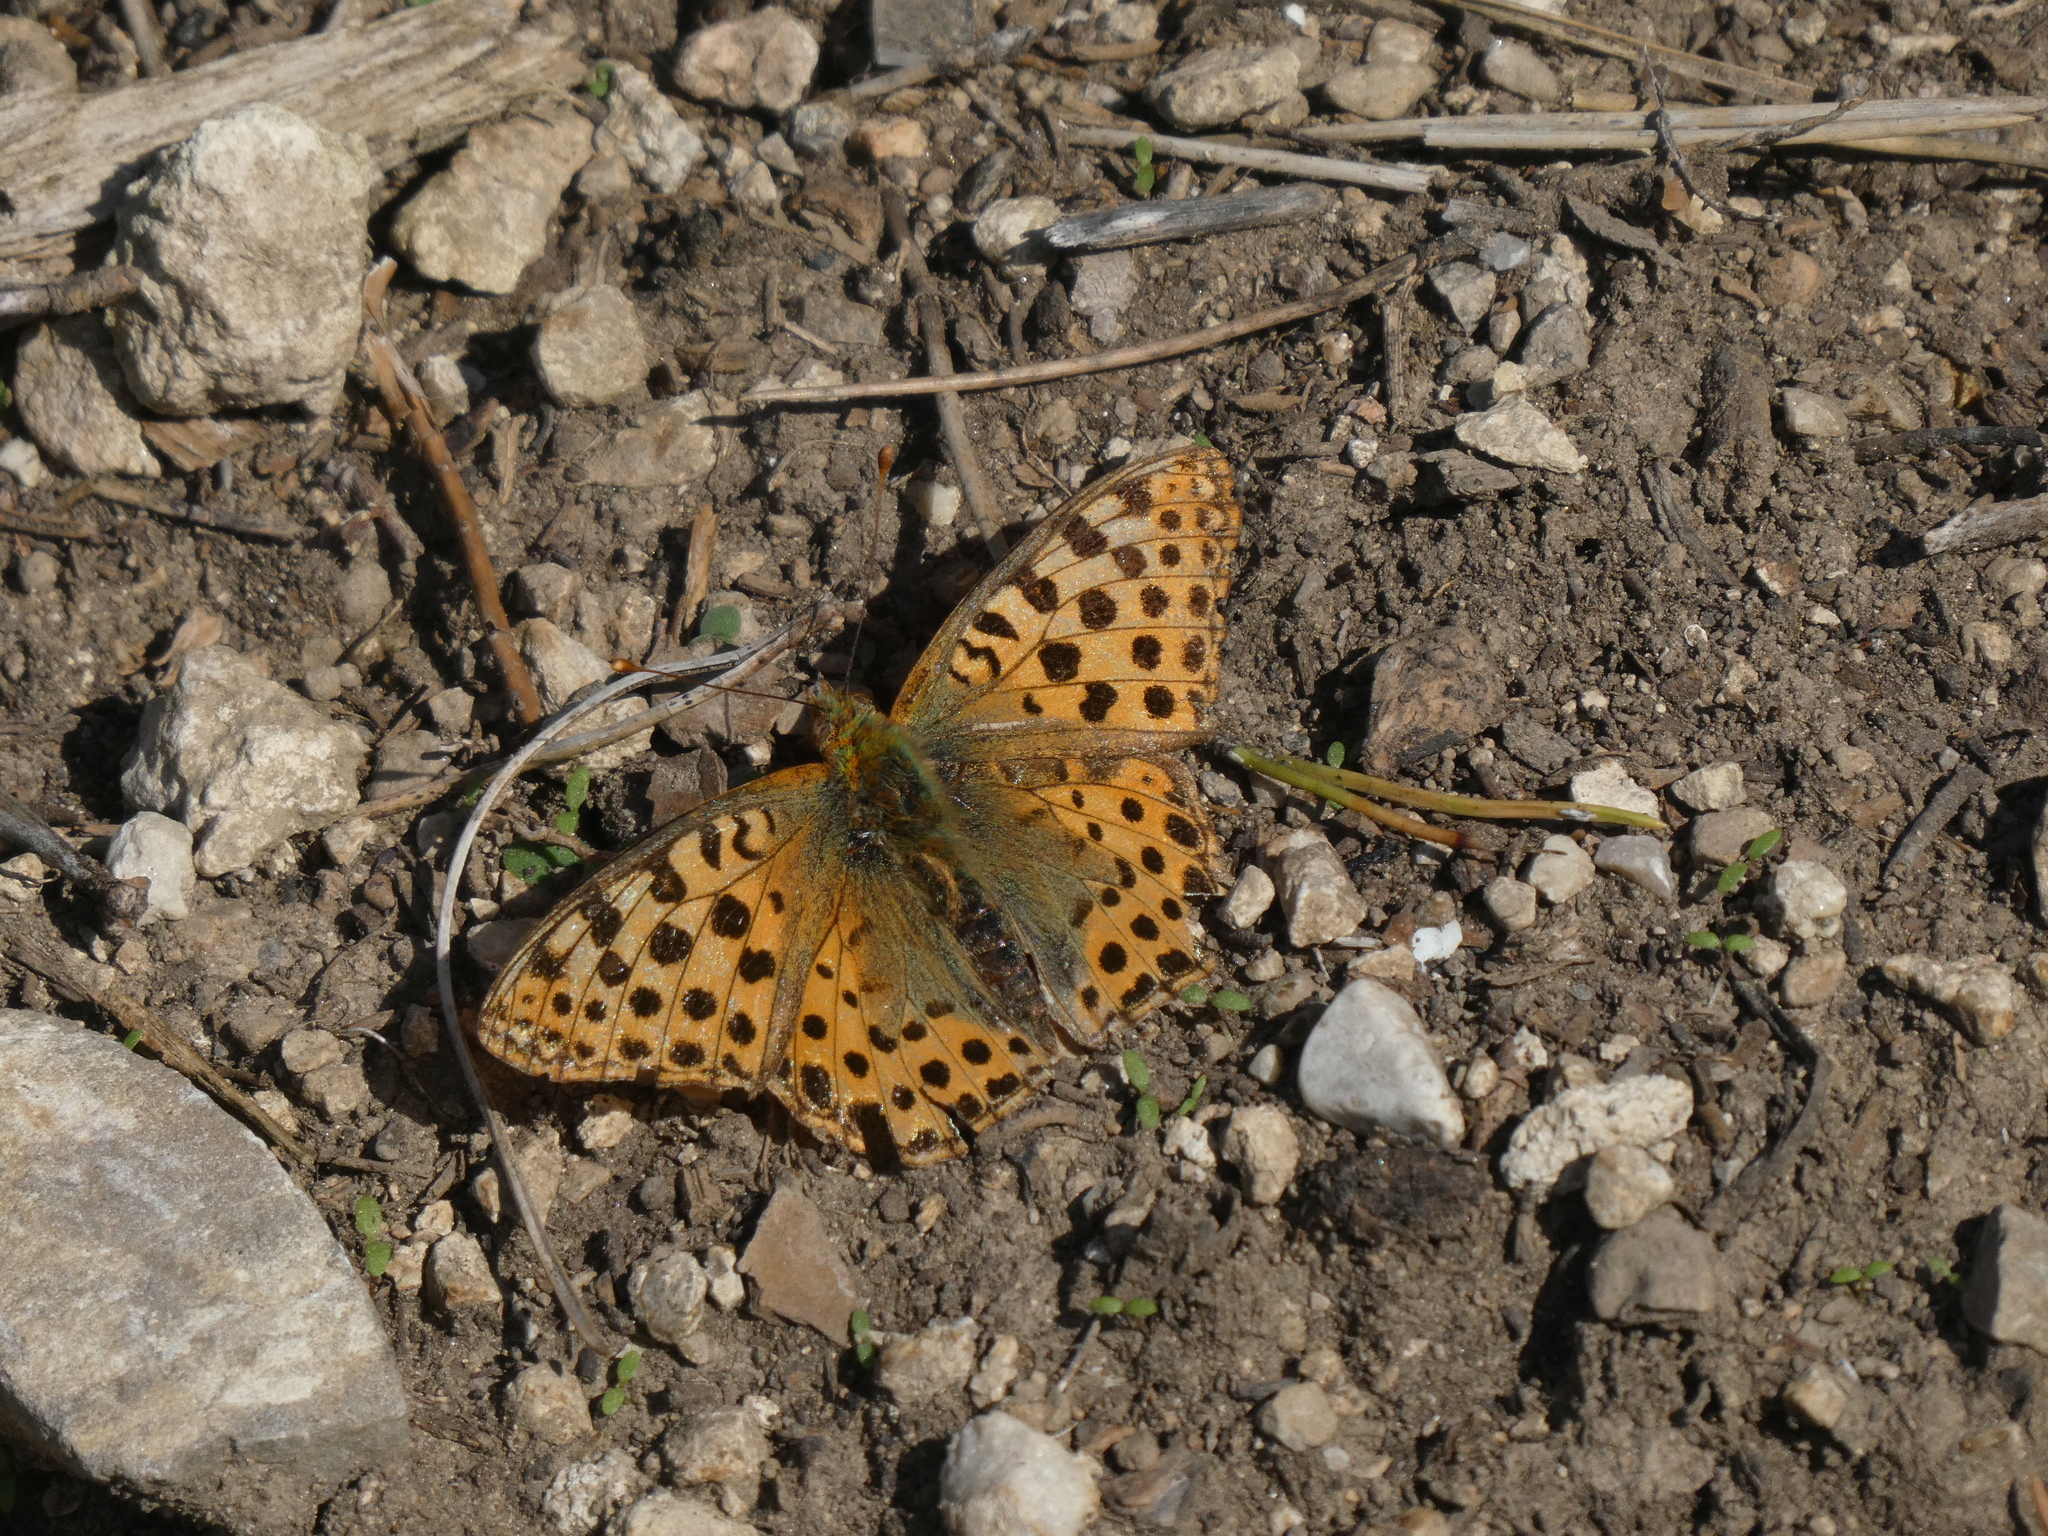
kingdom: Animalia
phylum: Arthropoda
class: Insecta
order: Lepidoptera
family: Nymphalidae
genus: Issoria
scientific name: Issoria lathonia
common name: Queen of spain fritillary
